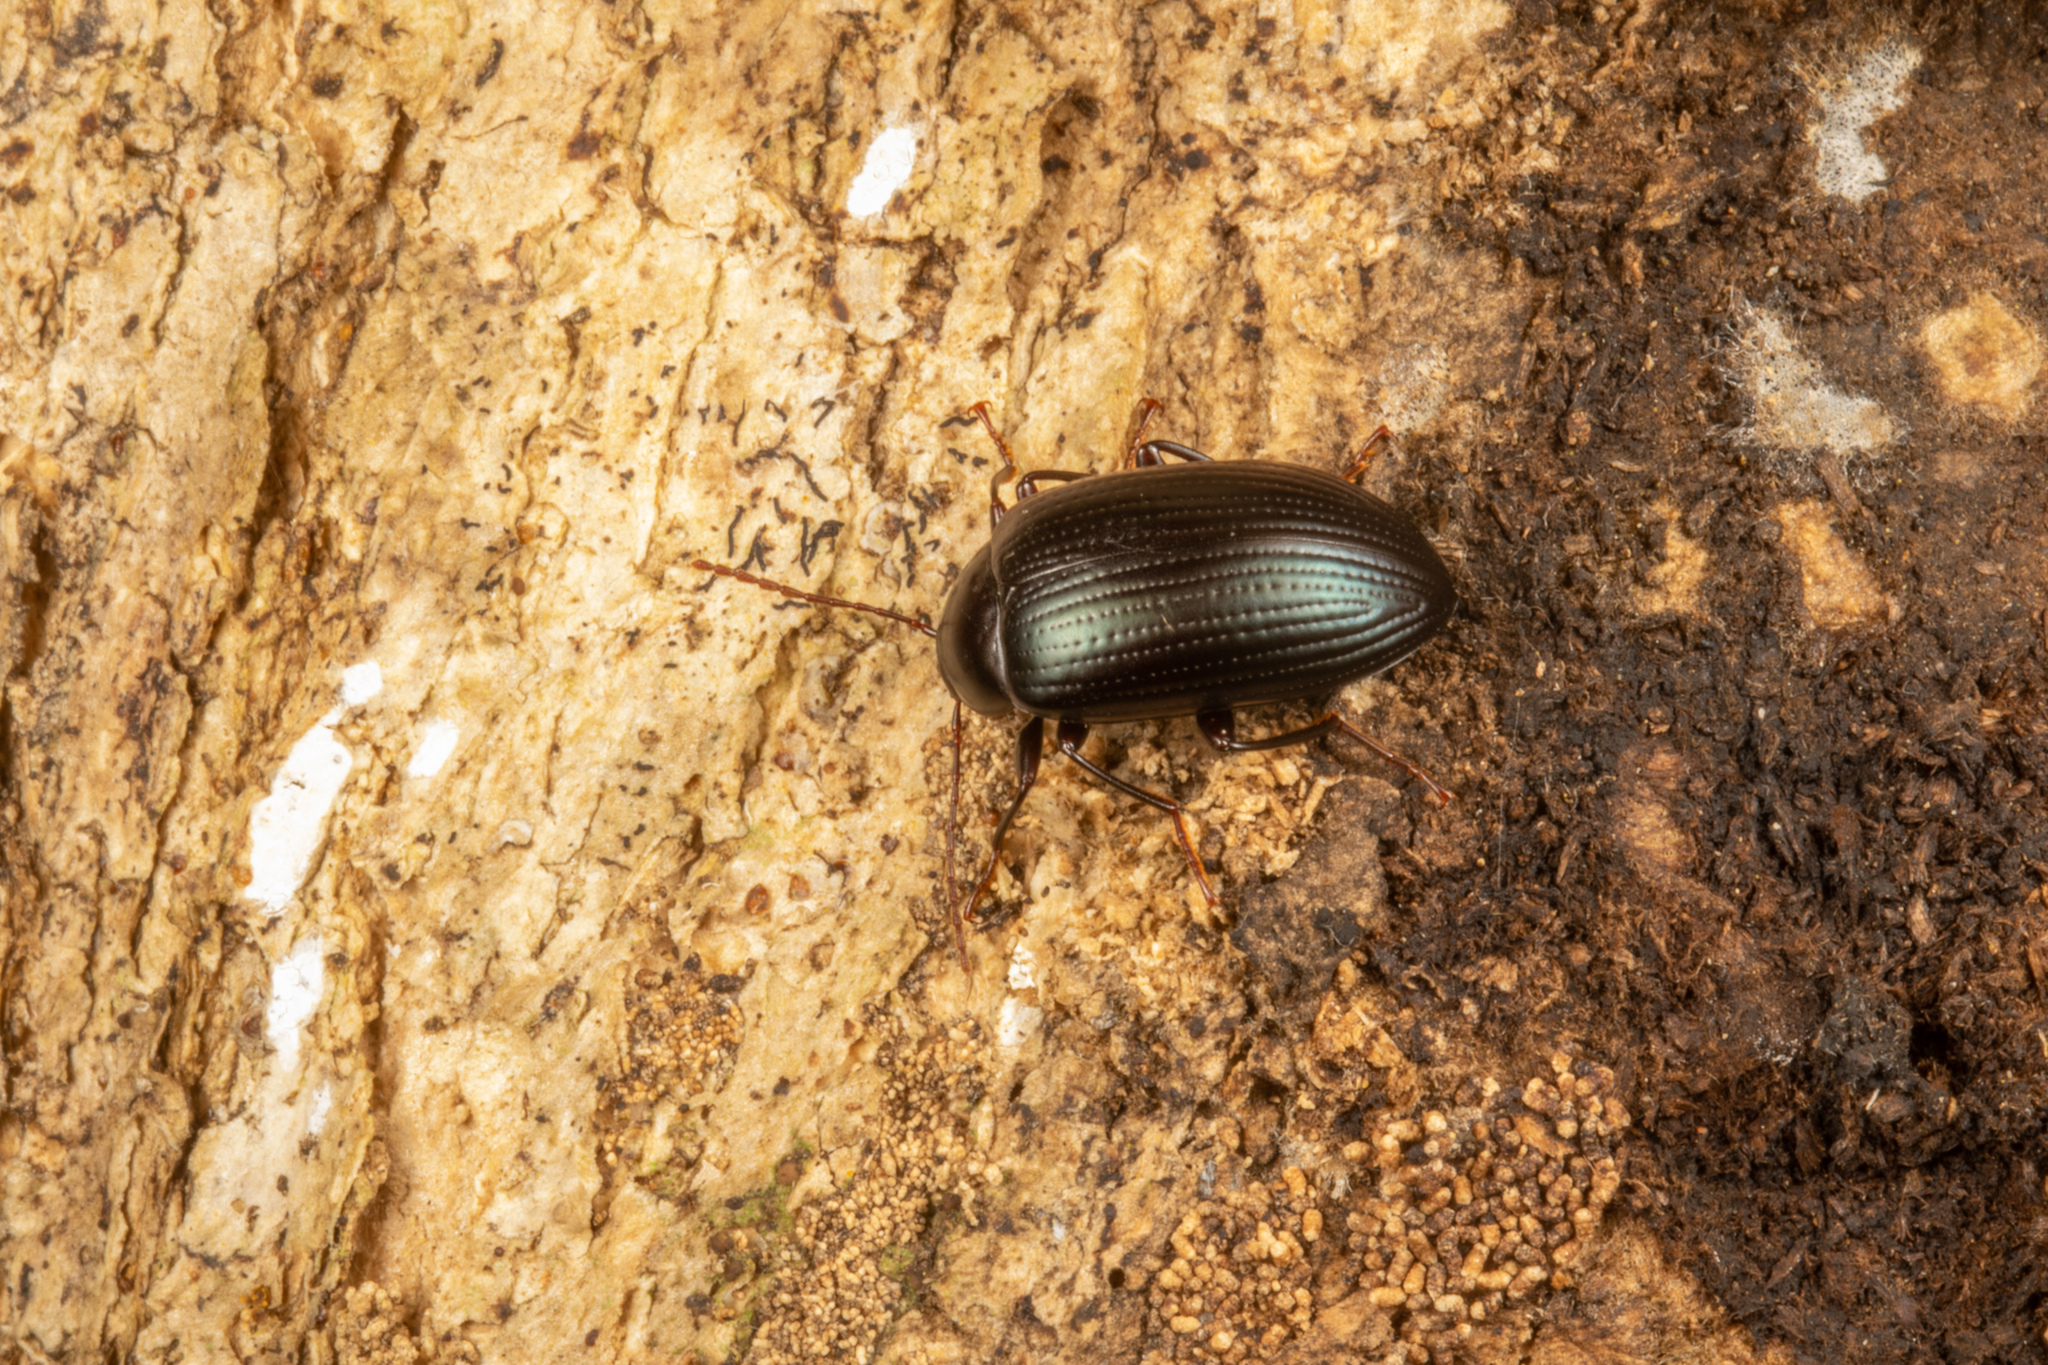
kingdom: Animalia
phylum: Arthropoda
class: Insecta
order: Coleoptera
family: Tenebrionidae
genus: Amarygmus
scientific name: Amarygmus
